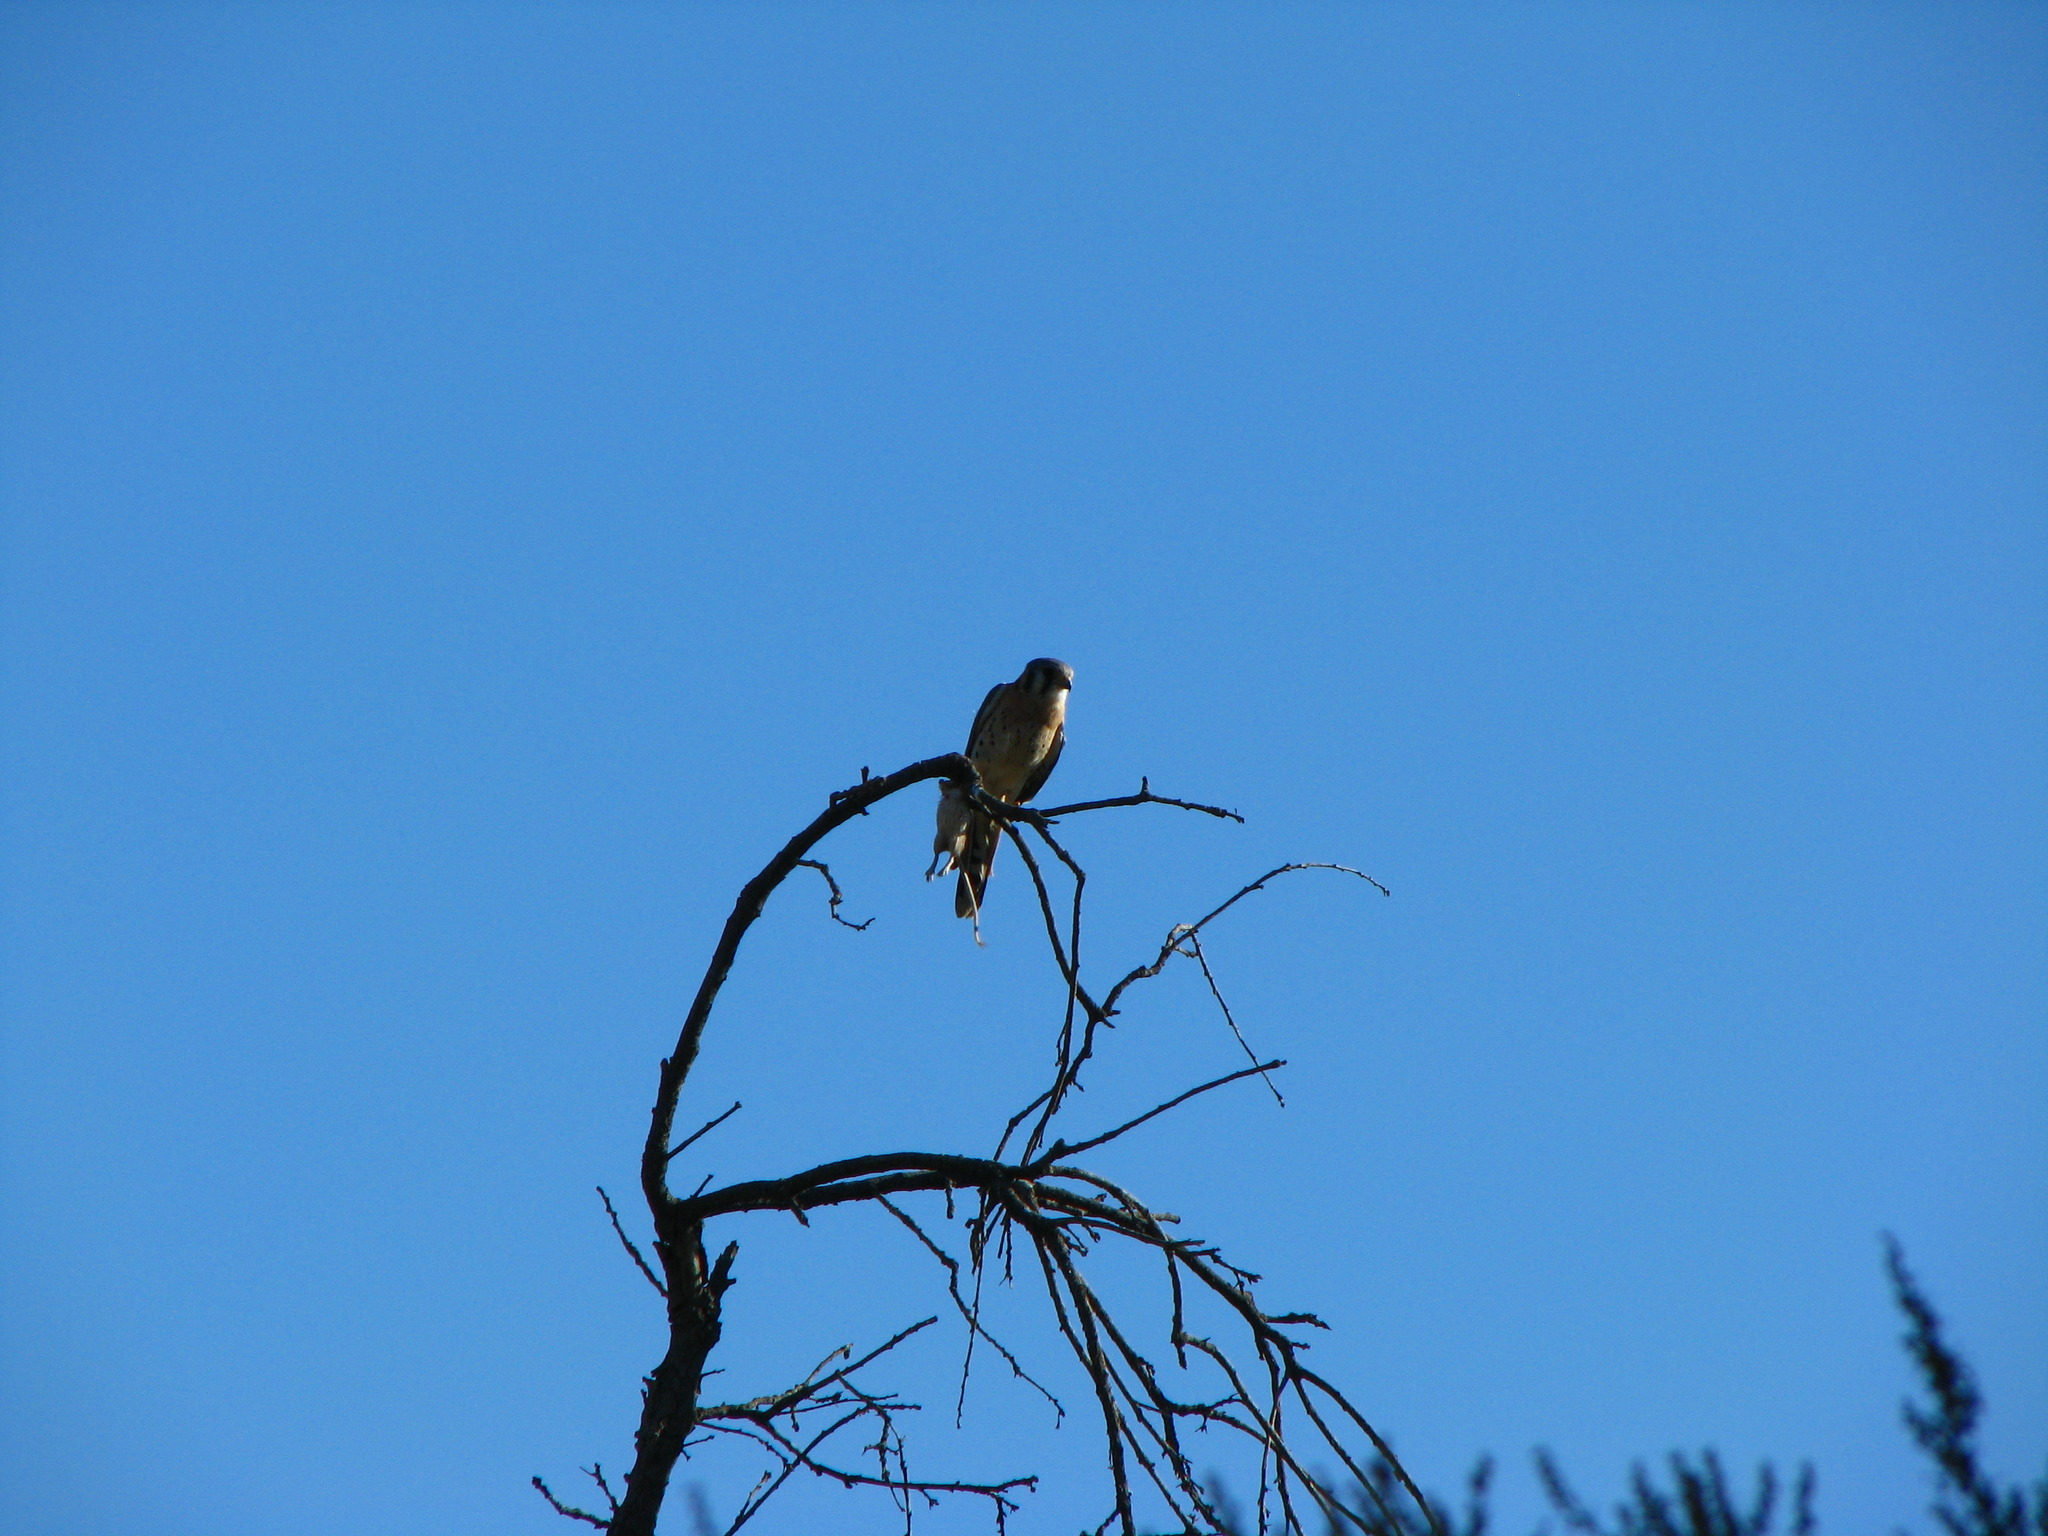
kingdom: Animalia
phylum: Chordata
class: Aves
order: Falconiformes
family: Falconidae
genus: Falco
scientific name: Falco sparverius
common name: American kestrel
